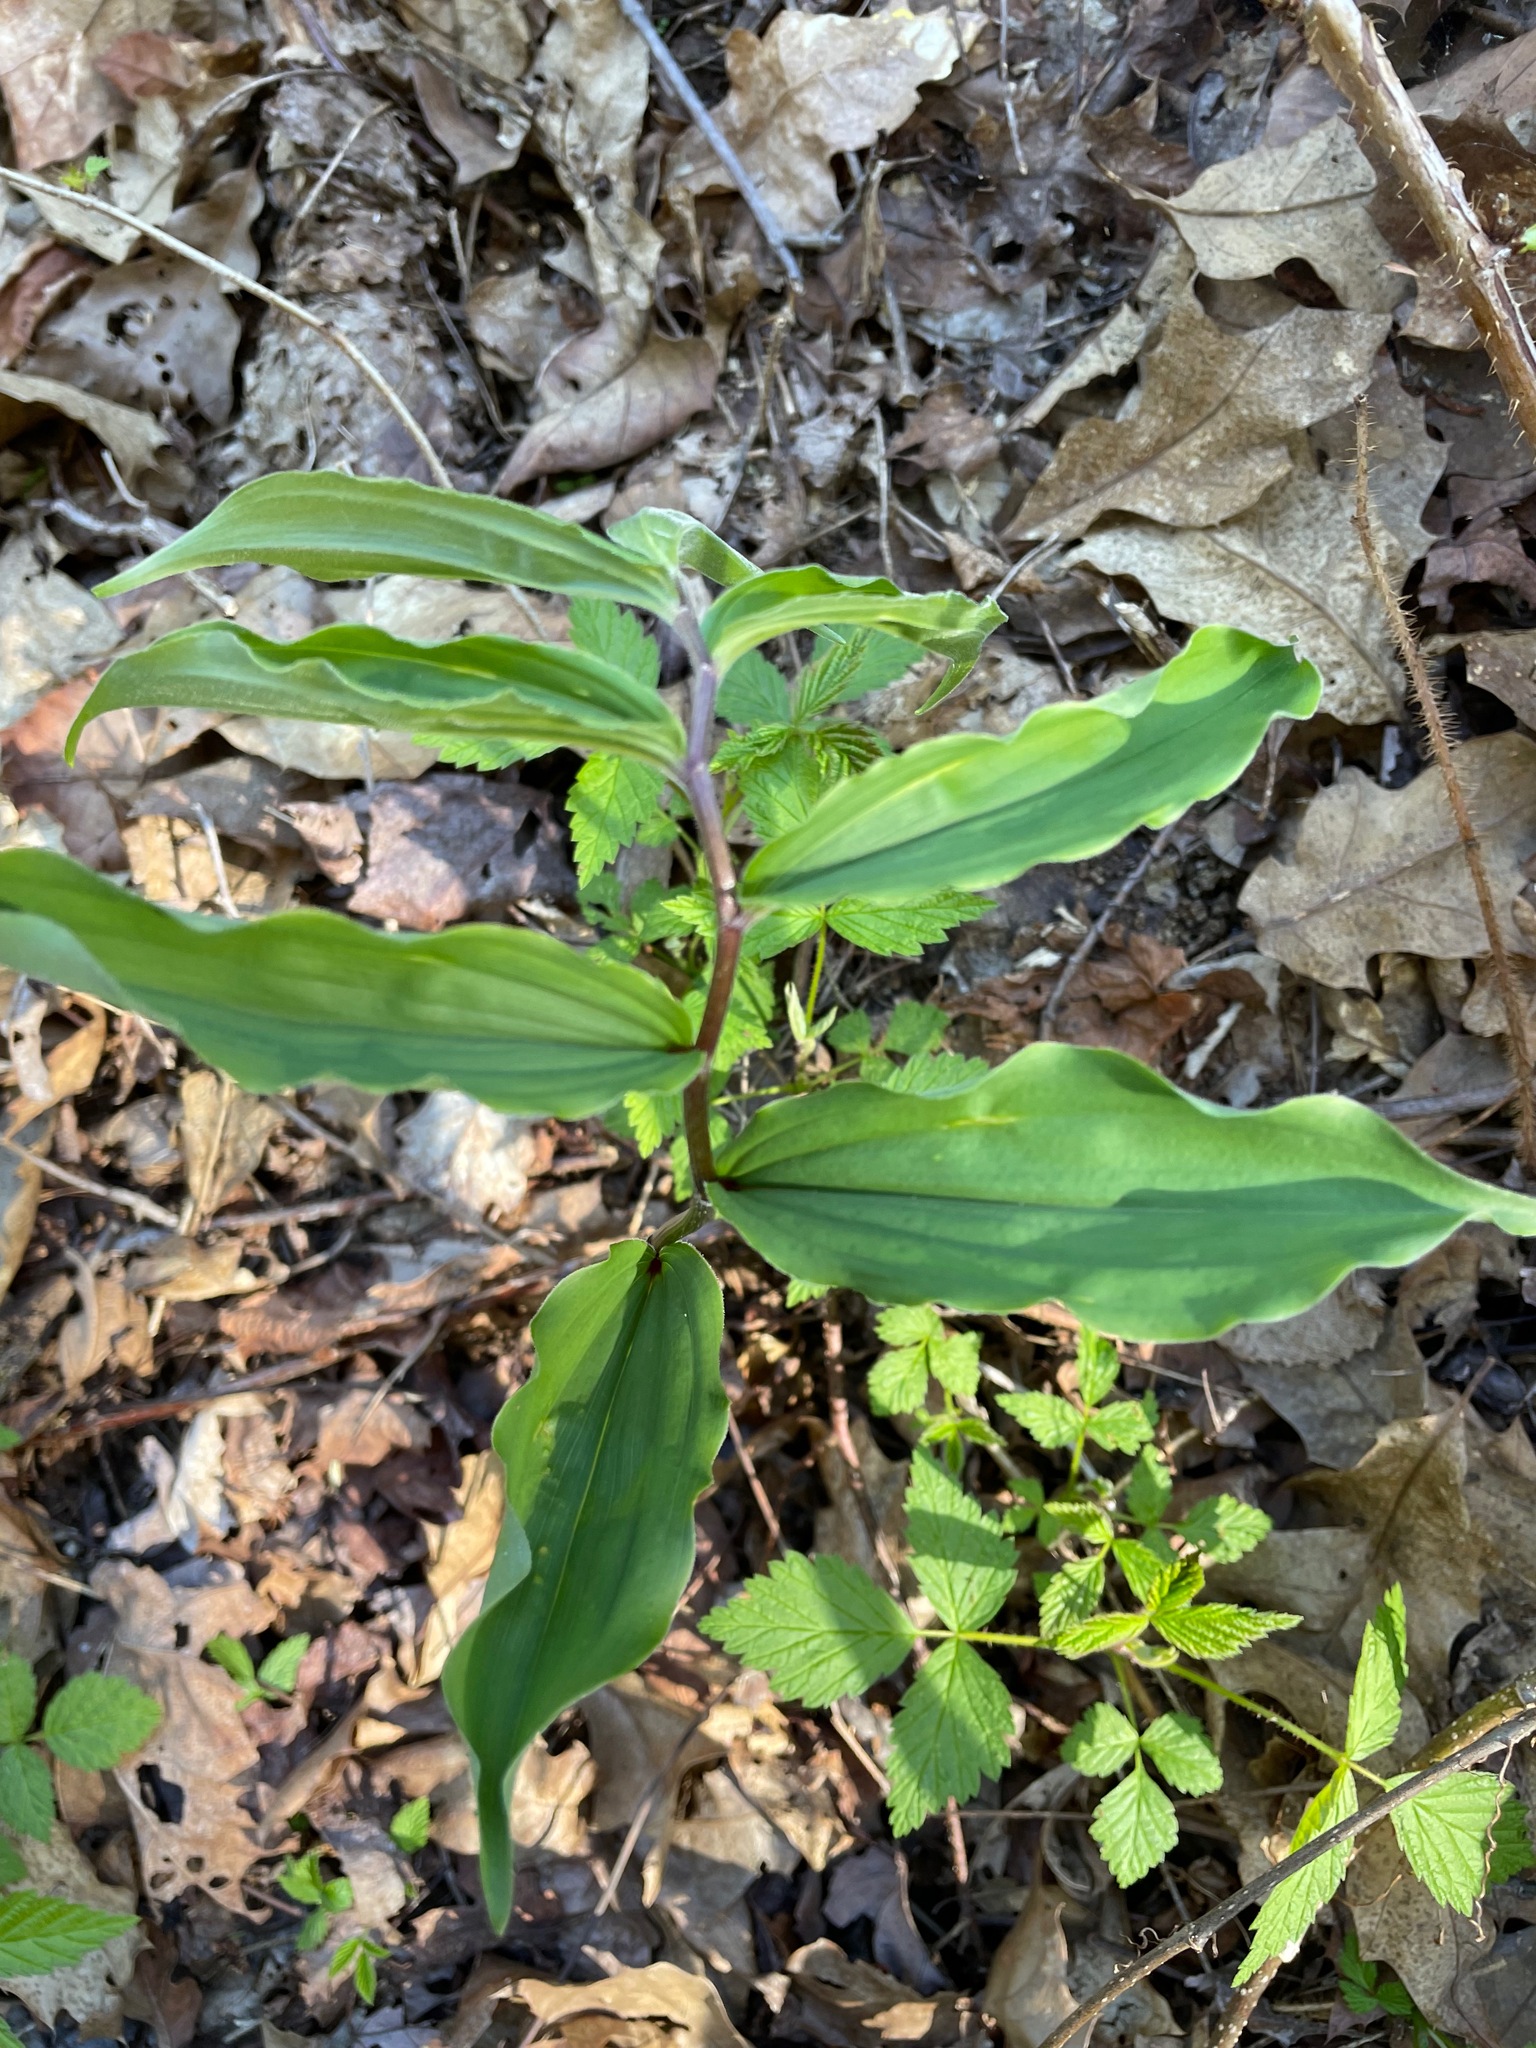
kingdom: Plantae
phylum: Tracheophyta
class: Liliopsida
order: Asparagales
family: Asparagaceae
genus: Maianthemum
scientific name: Maianthemum racemosum
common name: False spikenard
